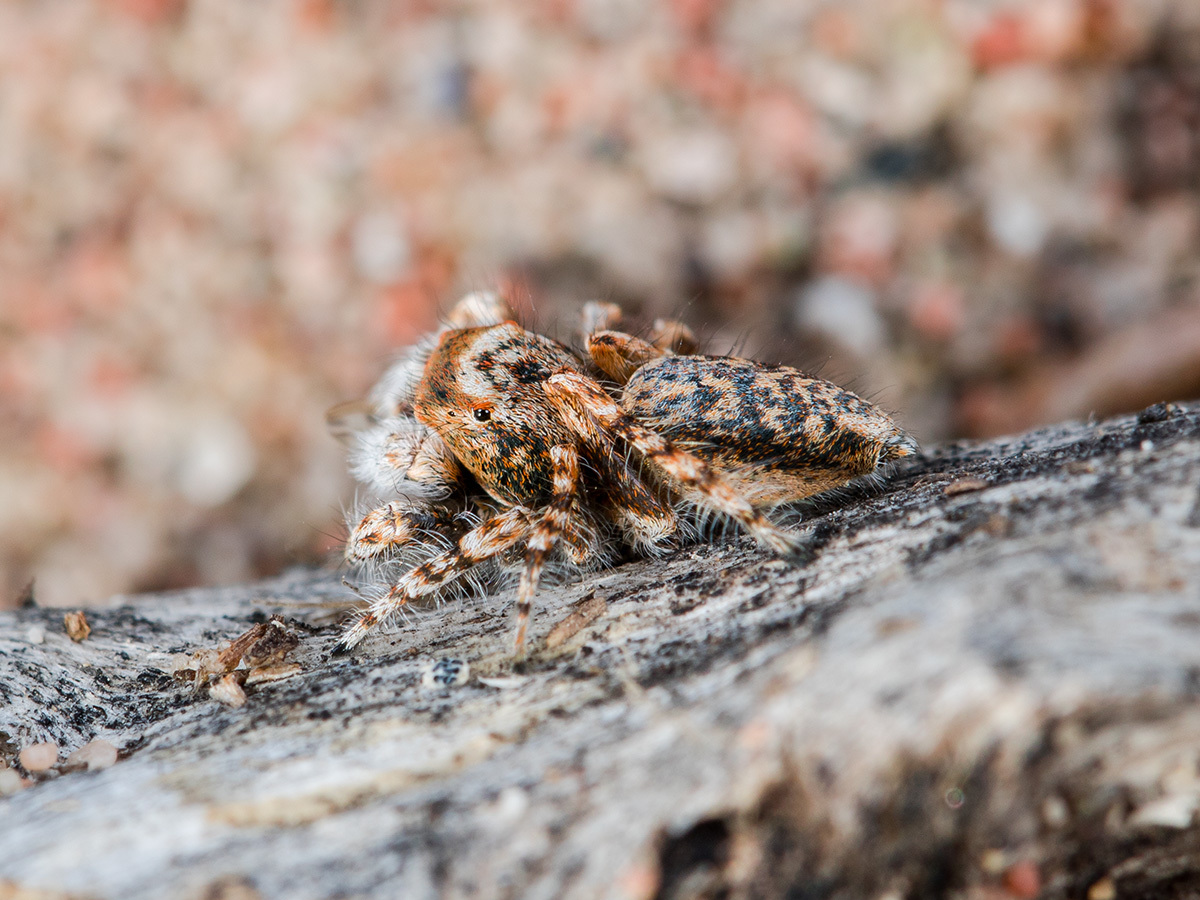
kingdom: Animalia
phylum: Arthropoda
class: Arachnida
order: Araneae
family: Salticidae
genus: Yllenus
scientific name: Yllenus uiguricus
